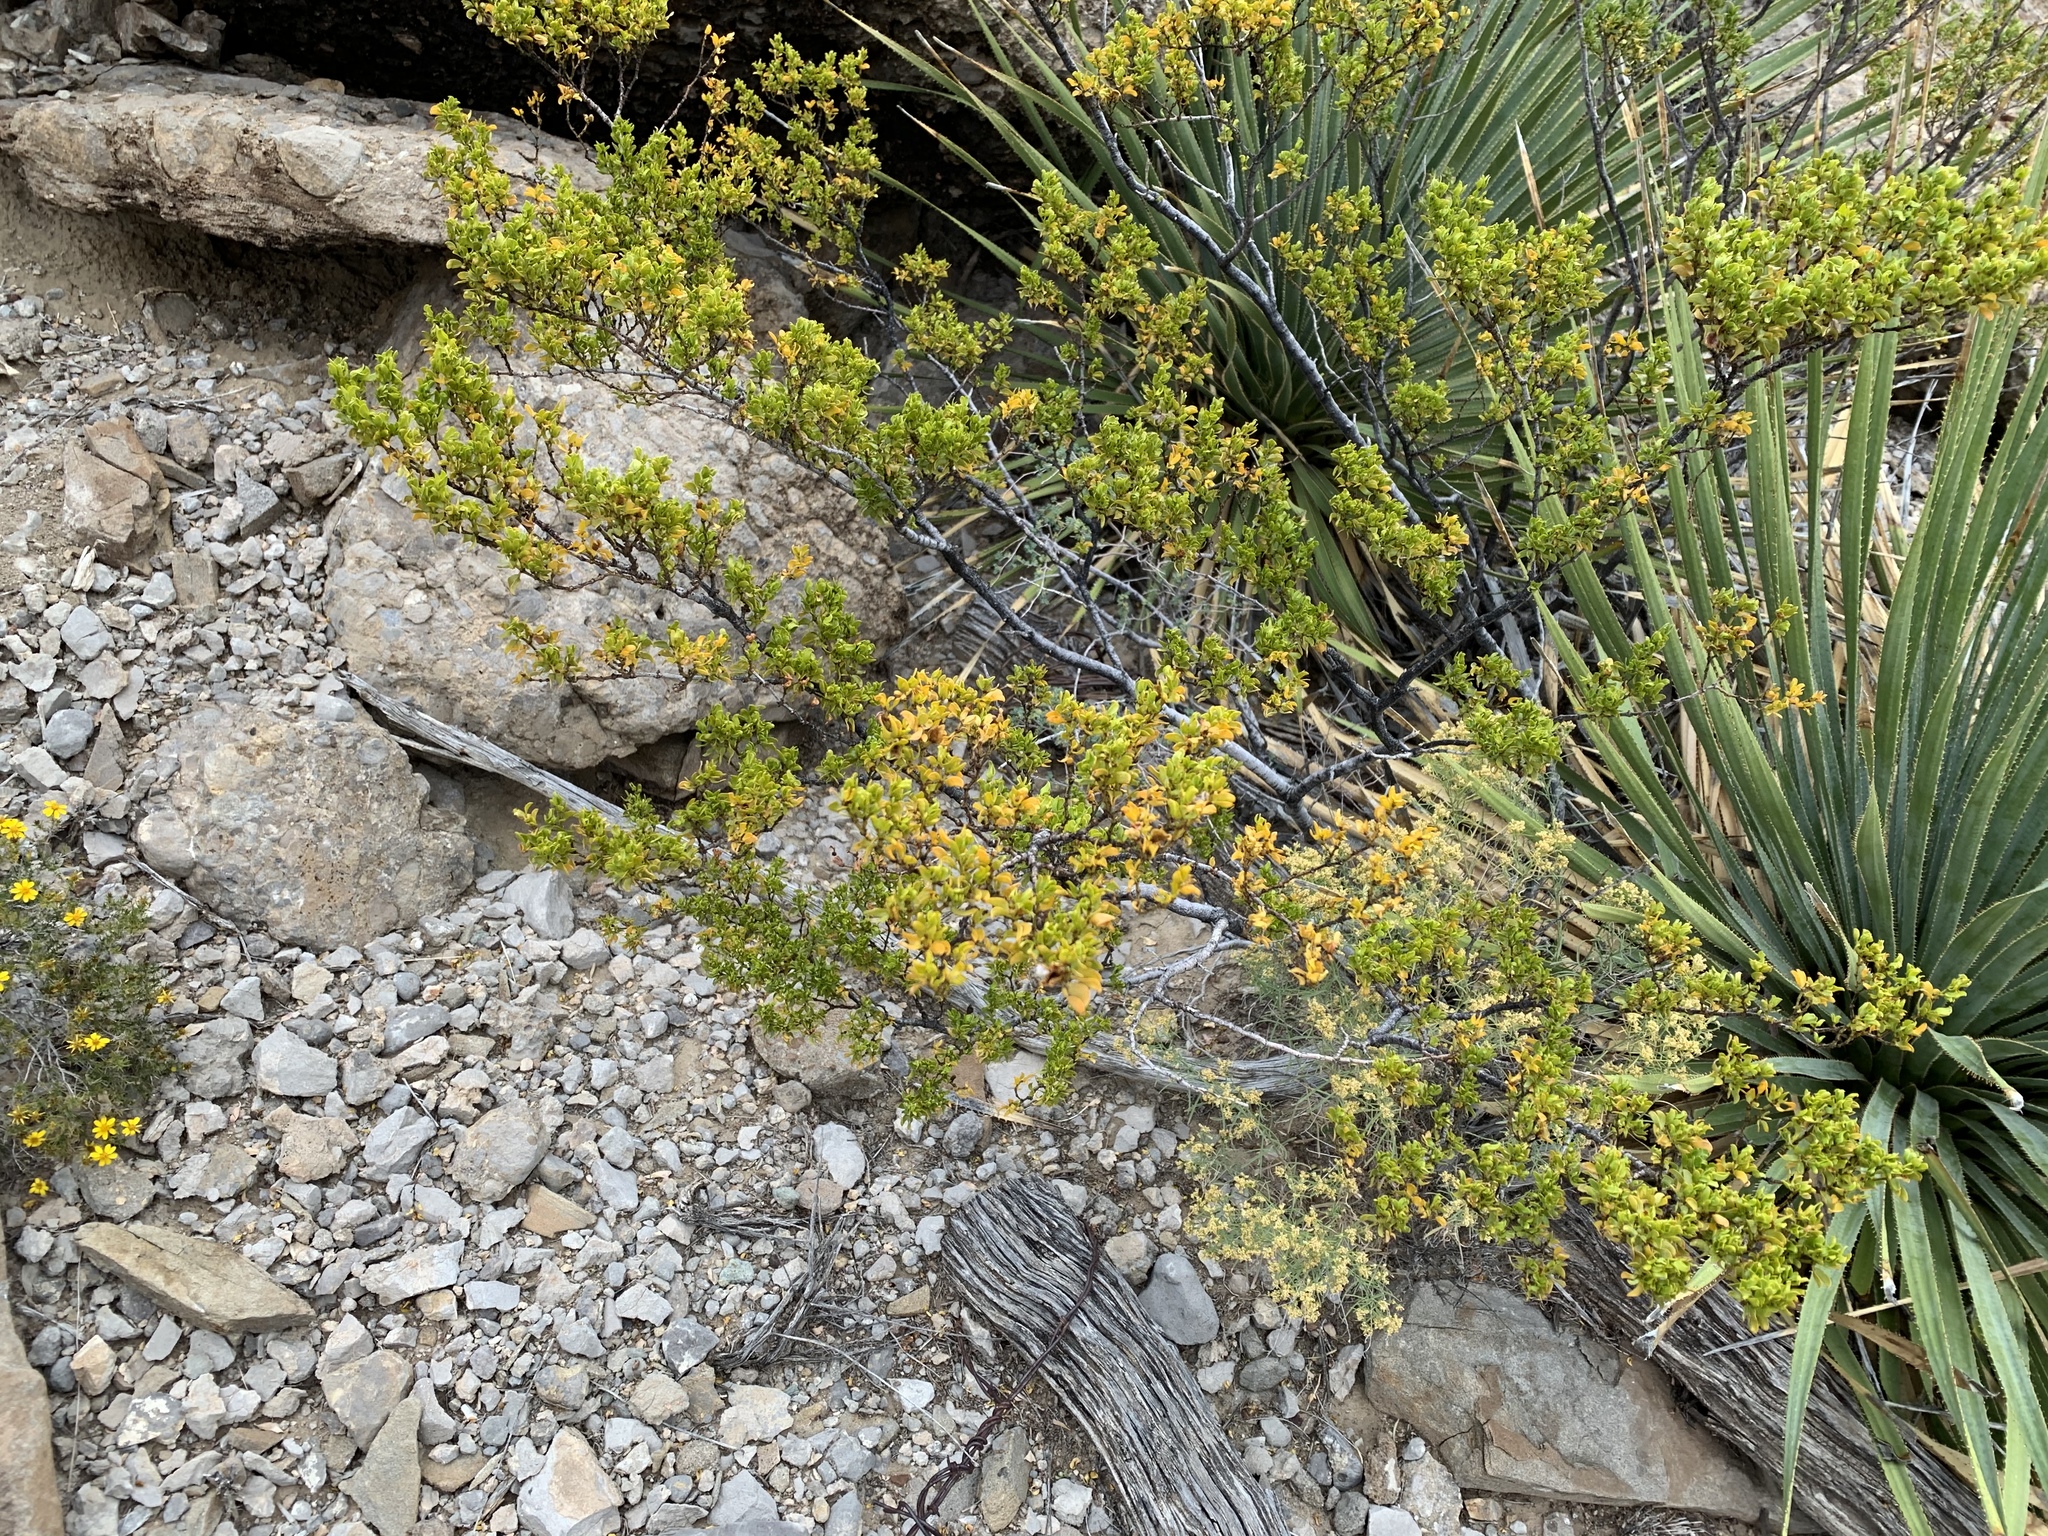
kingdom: Plantae
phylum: Tracheophyta
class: Magnoliopsida
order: Zygophyllales
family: Zygophyllaceae
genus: Larrea
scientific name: Larrea tridentata
